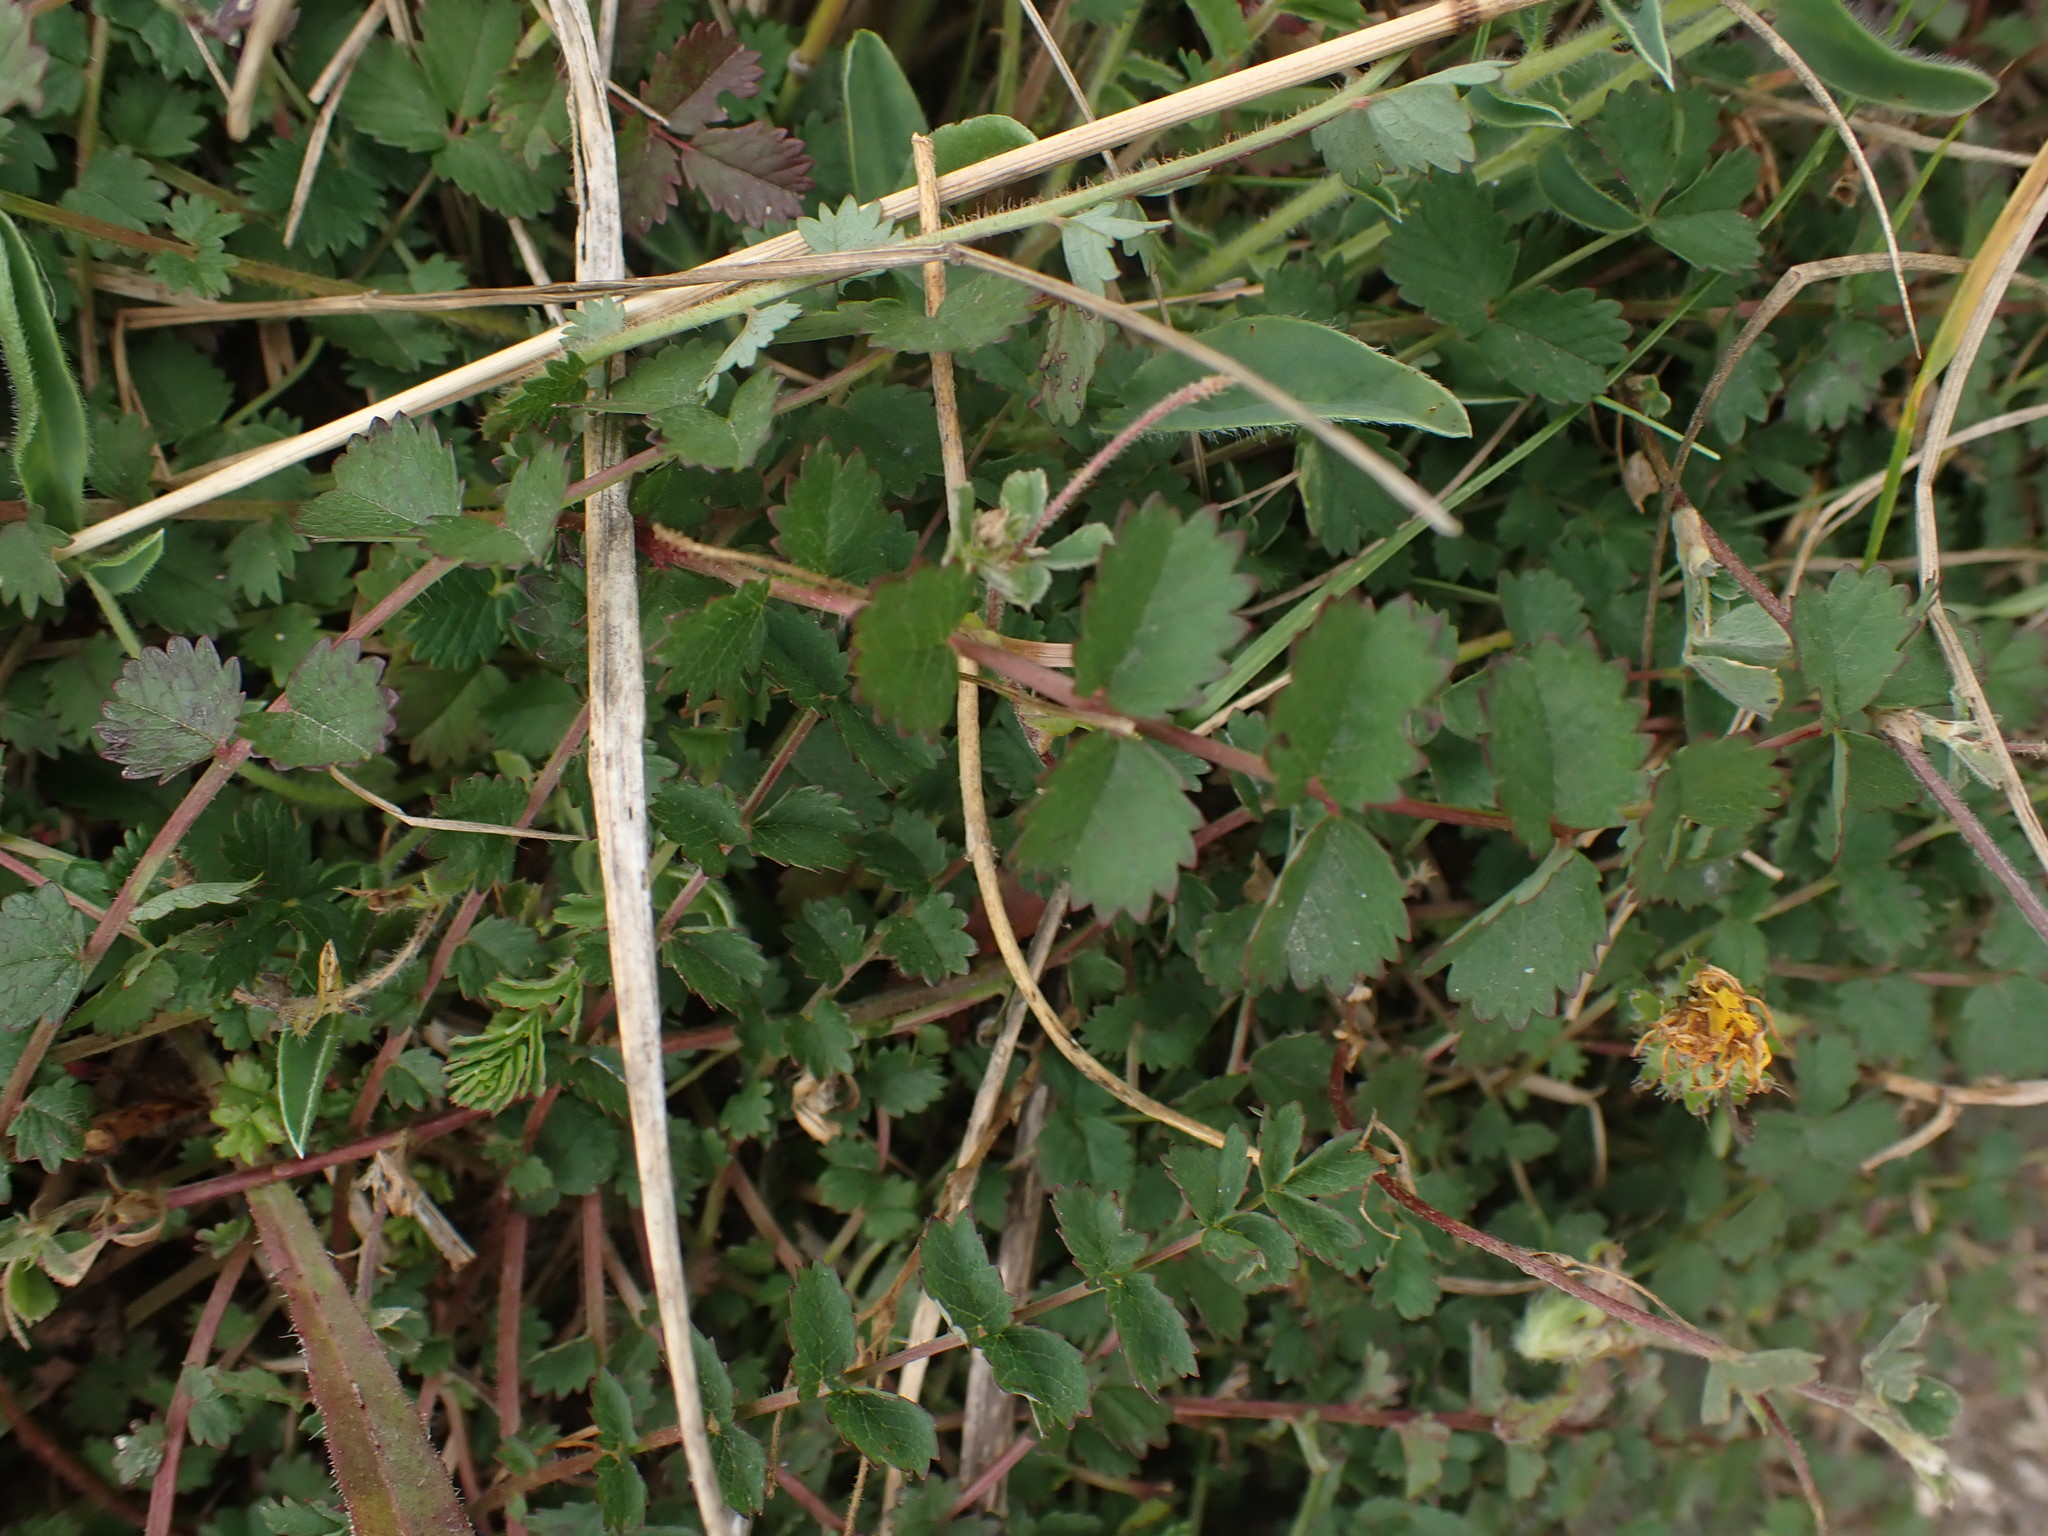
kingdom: Plantae
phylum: Tracheophyta
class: Magnoliopsida
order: Rosales
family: Rosaceae
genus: Poterium
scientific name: Poterium sanguisorba
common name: Salad burnet
